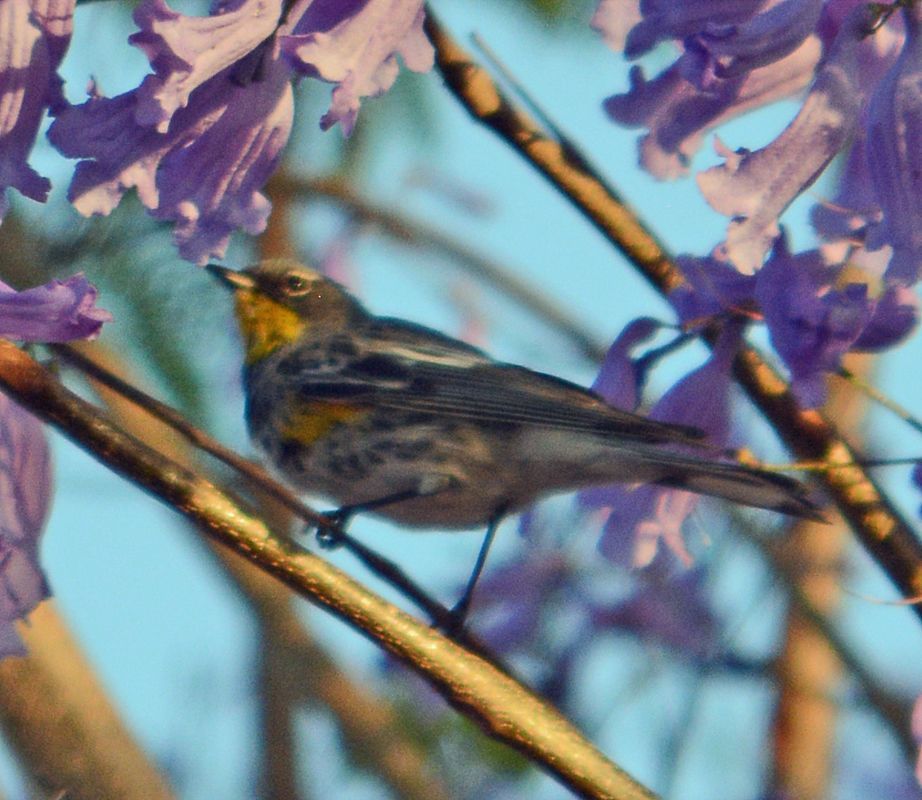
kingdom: Animalia
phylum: Chordata
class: Aves
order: Passeriformes
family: Parulidae
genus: Setophaga
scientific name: Setophaga auduboni
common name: Audubon's warbler
